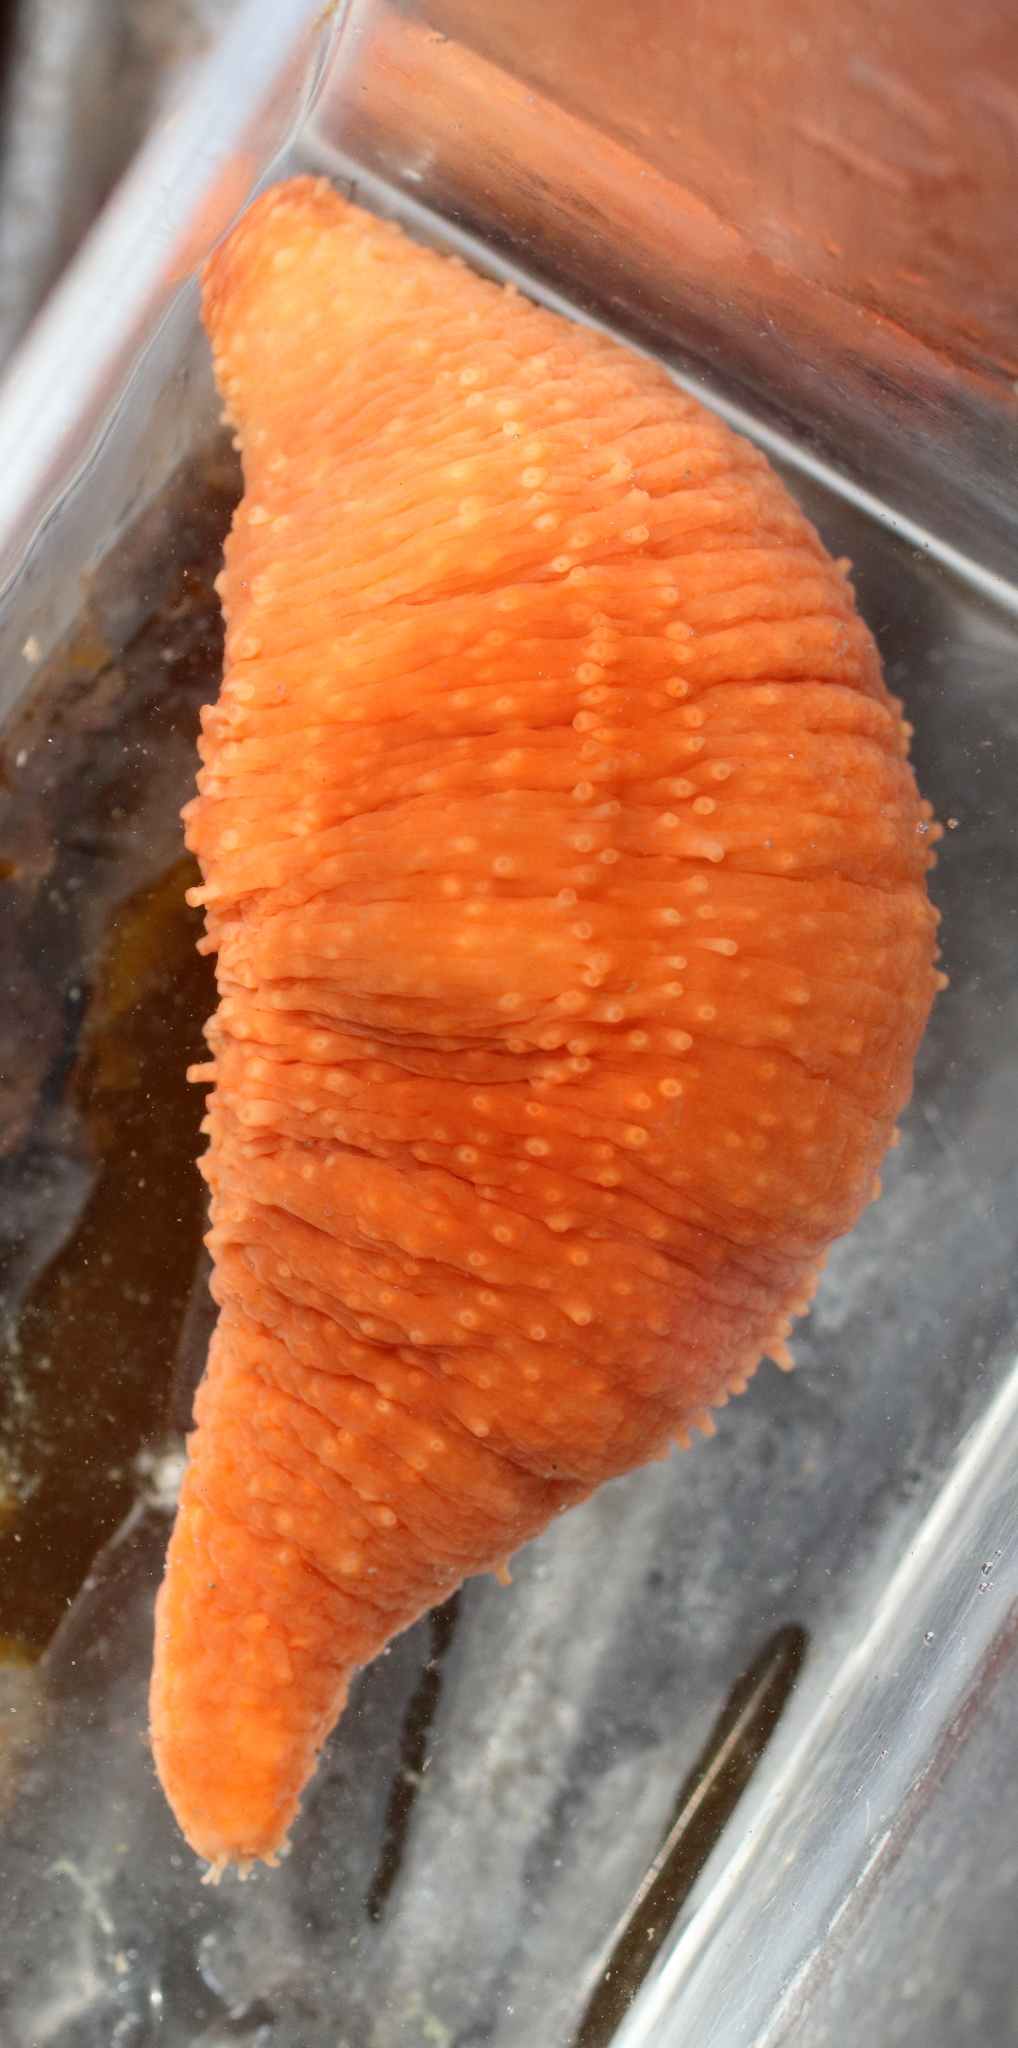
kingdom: Animalia
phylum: Echinodermata
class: Holothuroidea
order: Dendrochirotida
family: Cucumariidae
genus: Cucumaria
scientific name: Cucumaria miniata
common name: Orange sea cucumber
